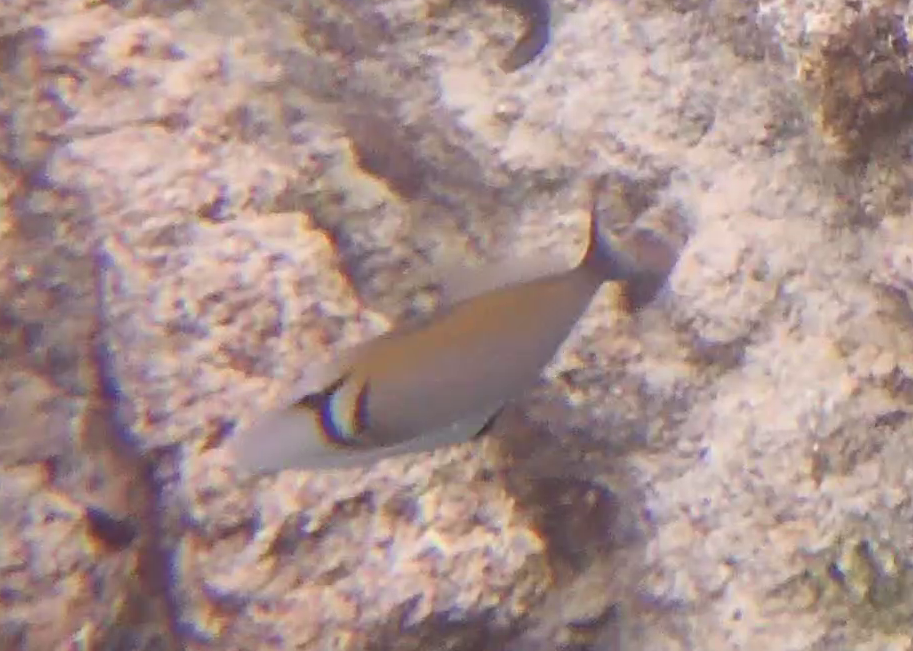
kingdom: Animalia
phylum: Chordata
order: Tetraodontiformes
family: Balistidae
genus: Sufflamen
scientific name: Sufflamen bursa
